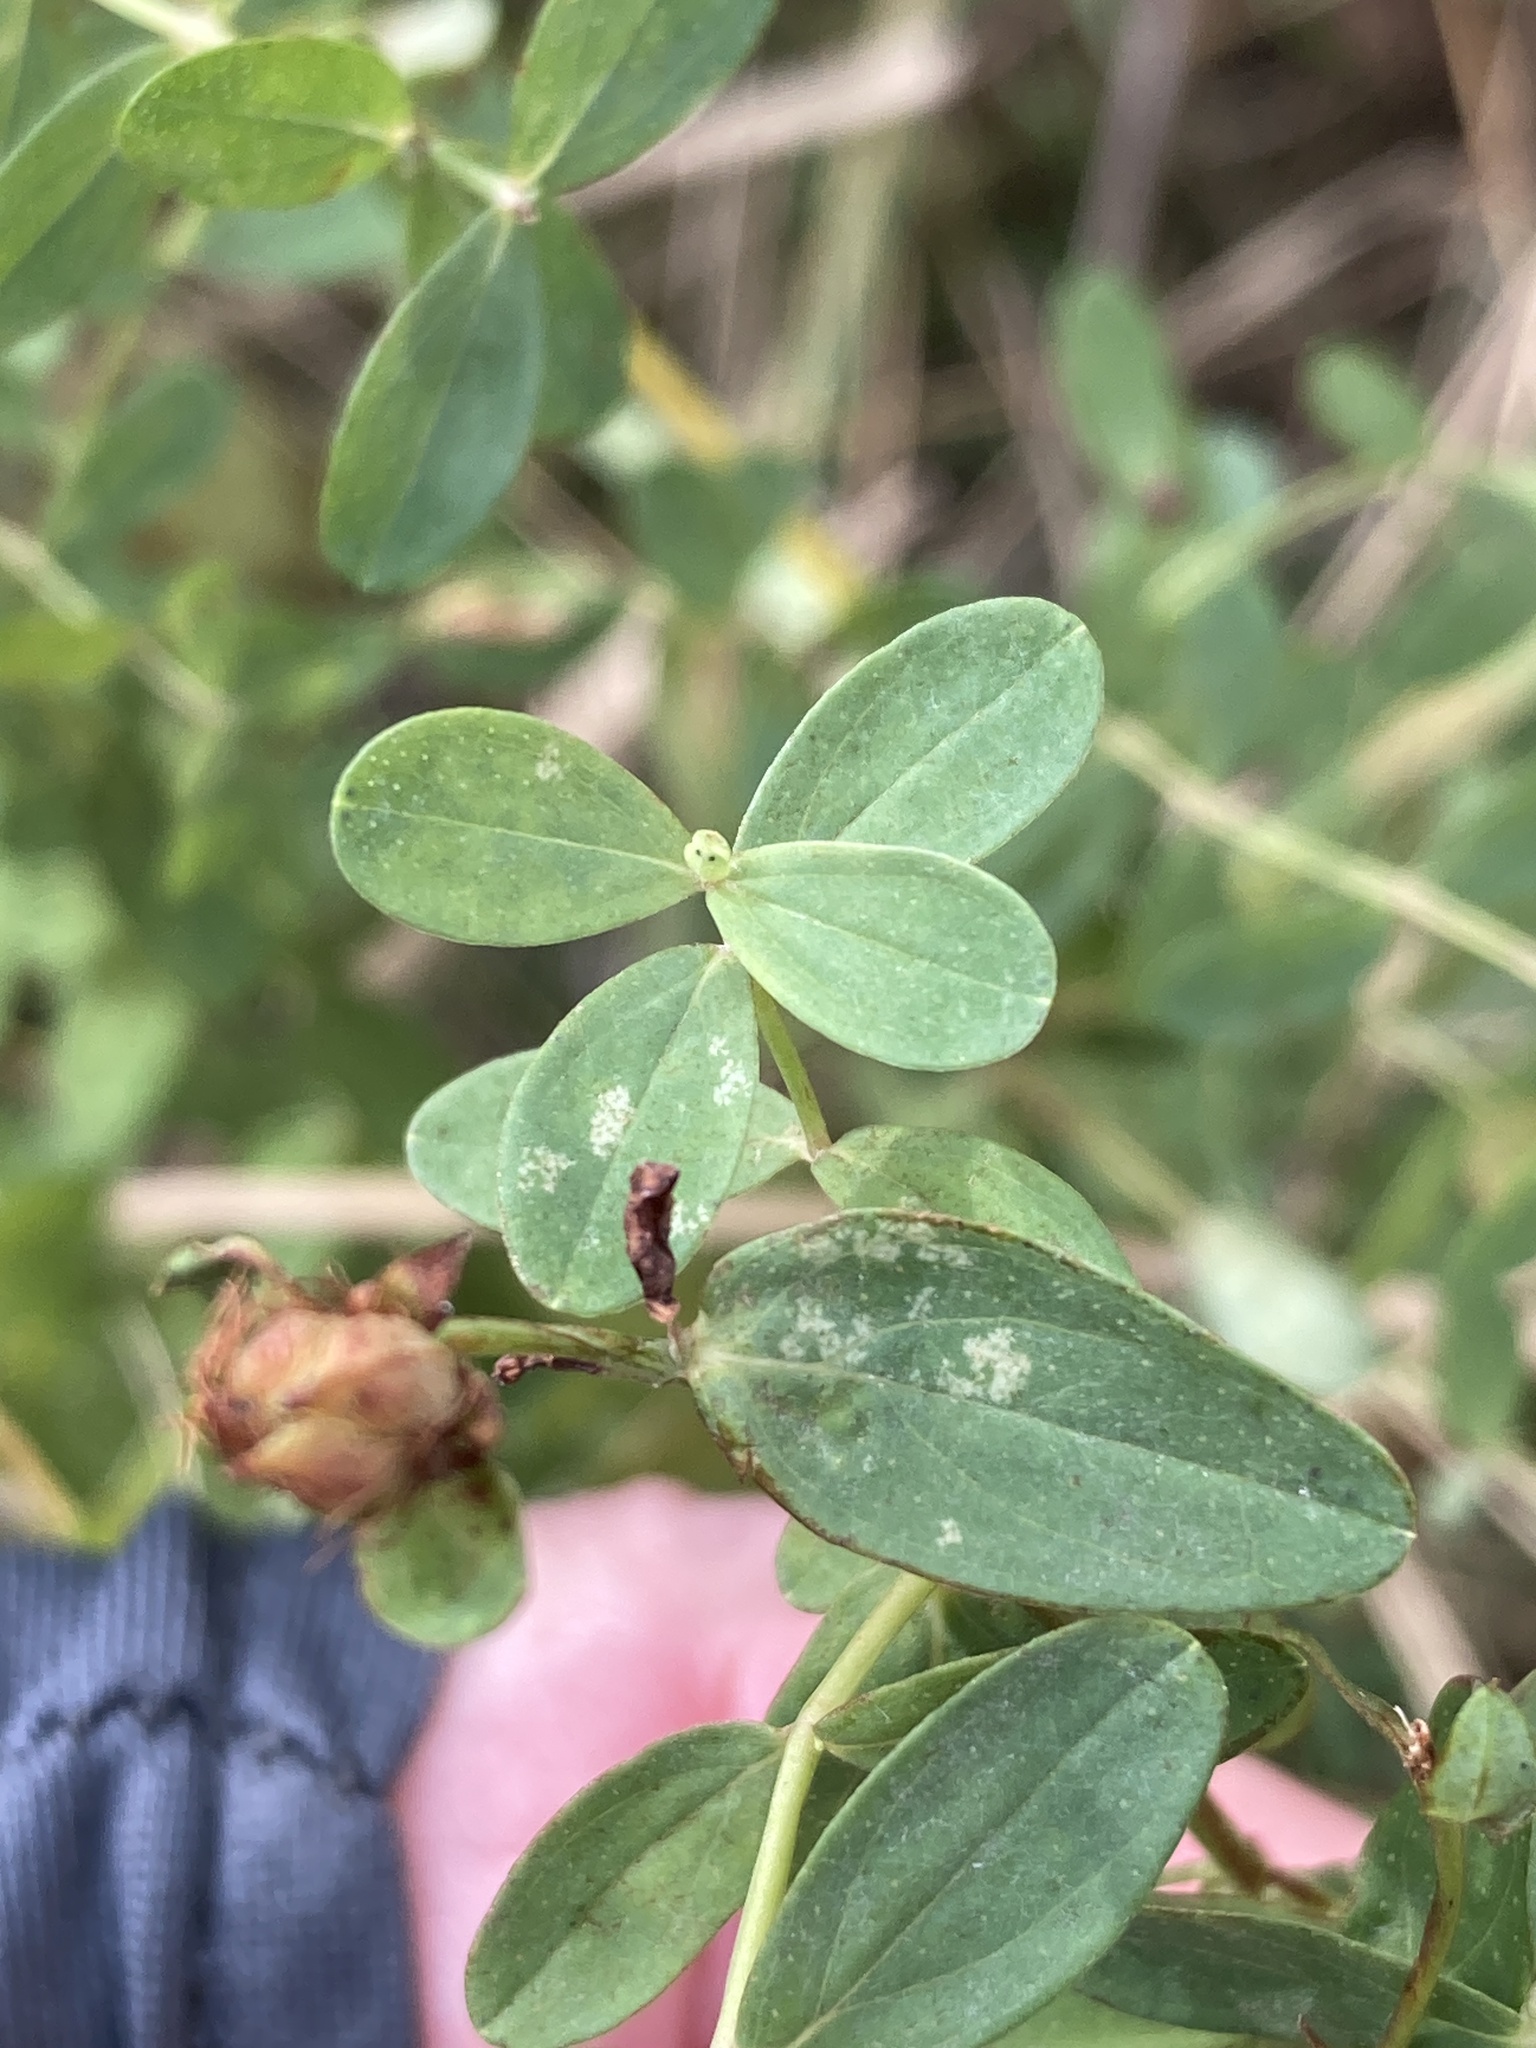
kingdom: Plantae
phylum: Tracheophyta
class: Magnoliopsida
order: Malpighiales
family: Hypericaceae
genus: Hypericum
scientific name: Hypericum perforatum
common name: Common st. johnswort
